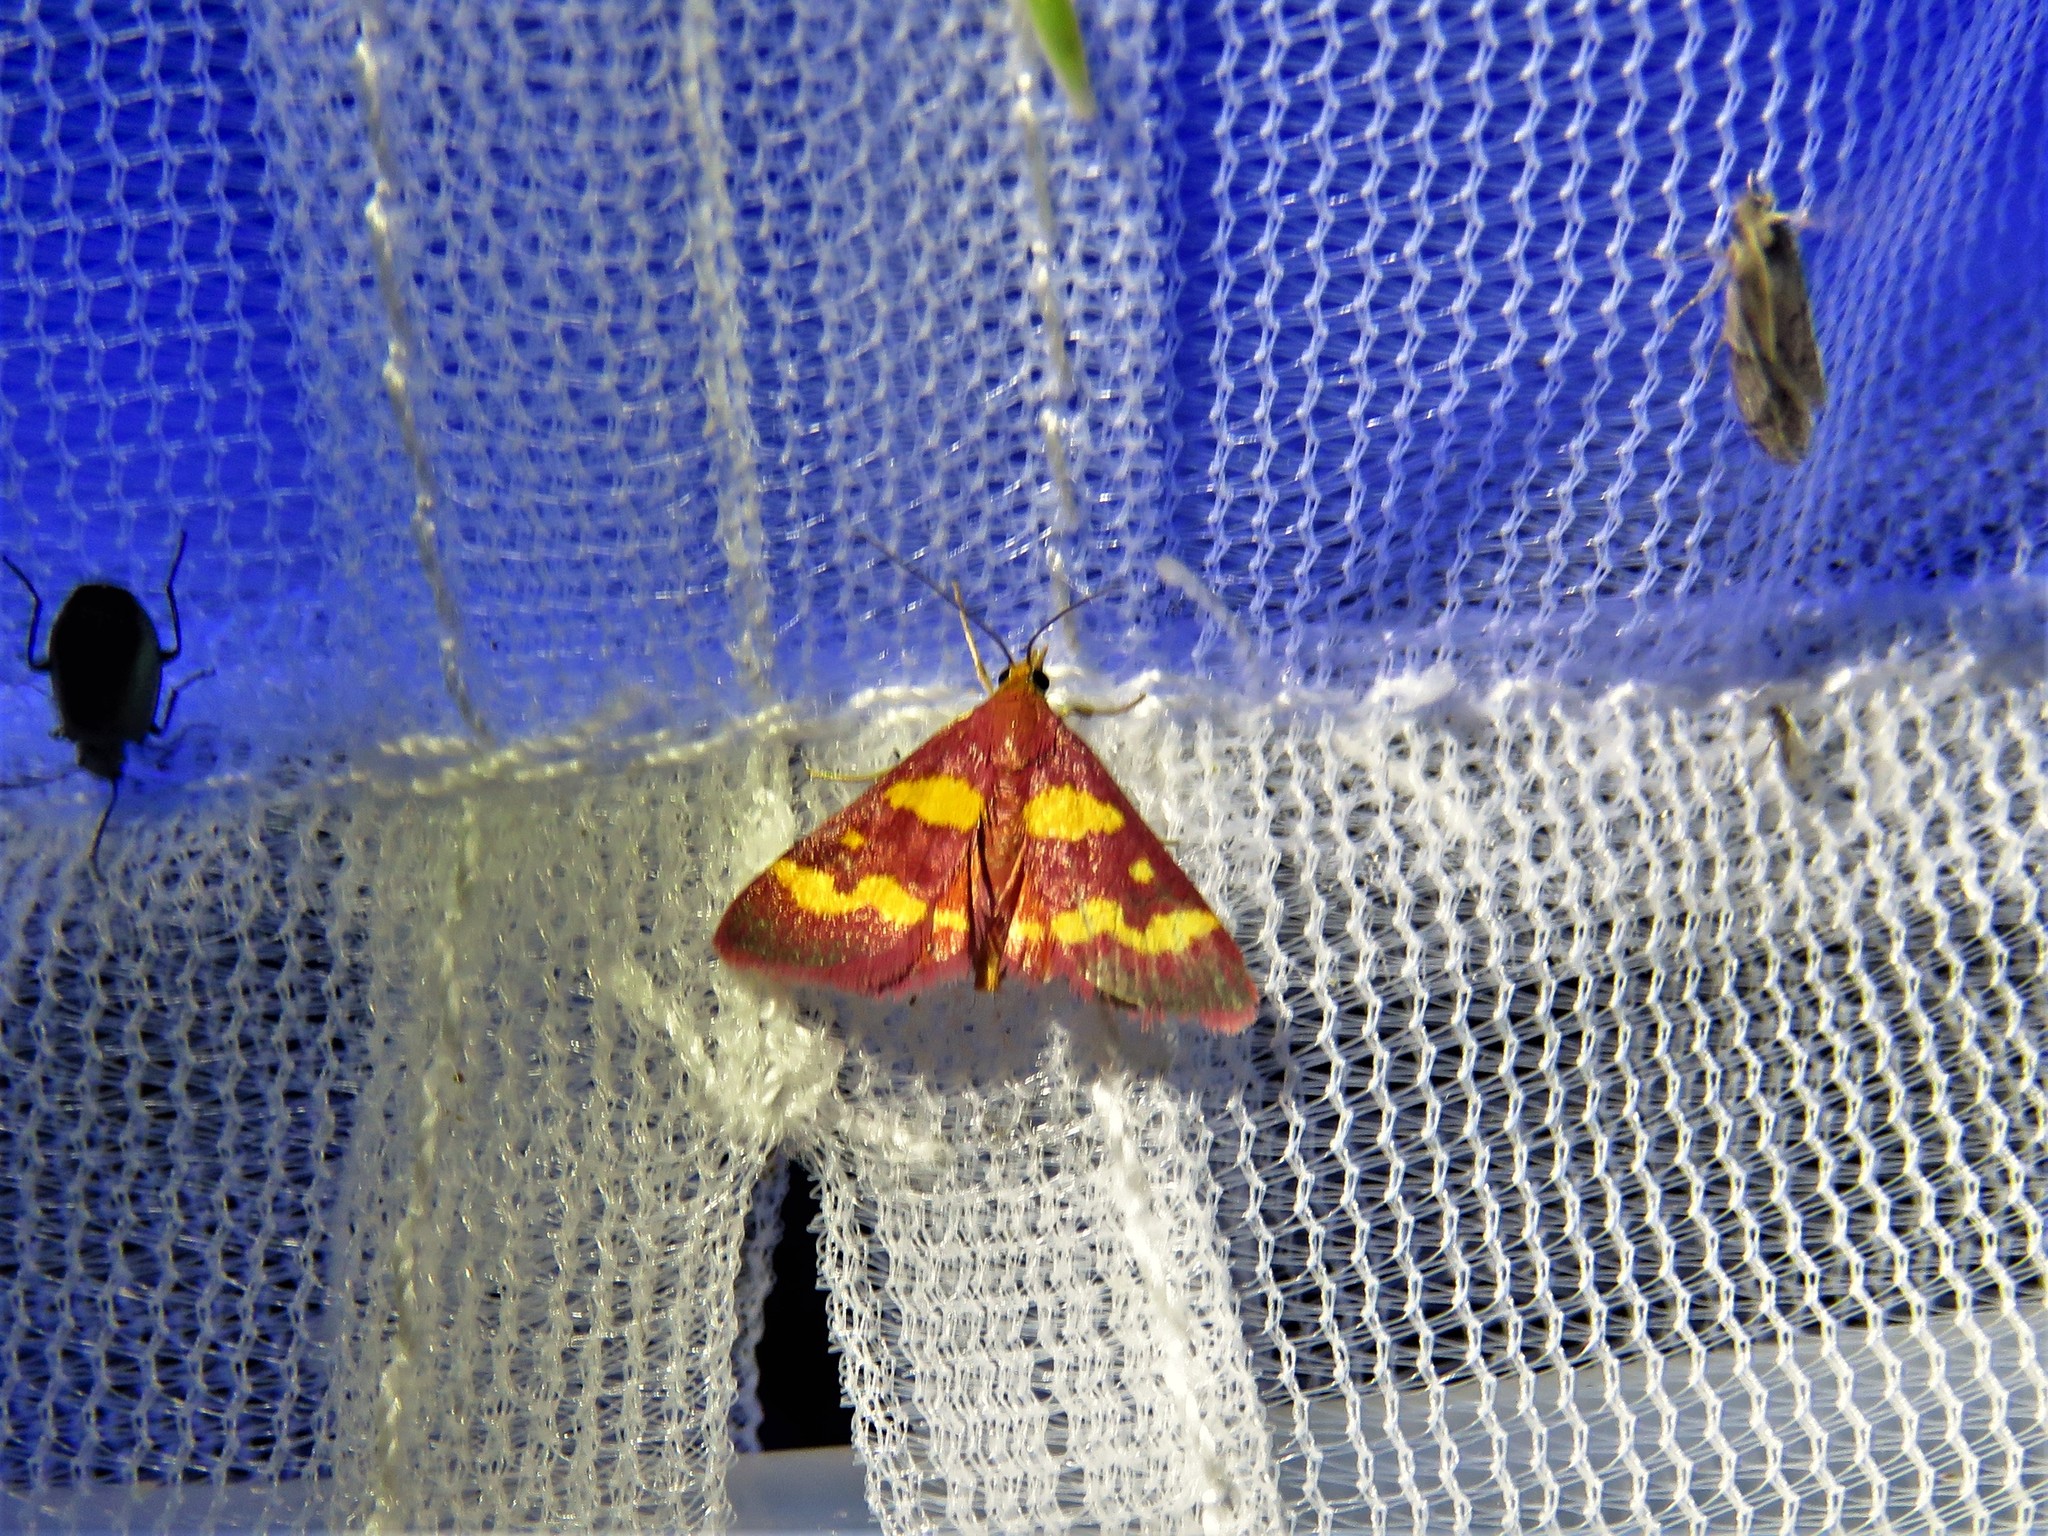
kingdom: Animalia
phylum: Arthropoda
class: Insecta
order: Lepidoptera
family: Crambidae
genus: Pyrausta
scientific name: Pyrausta tyralis
